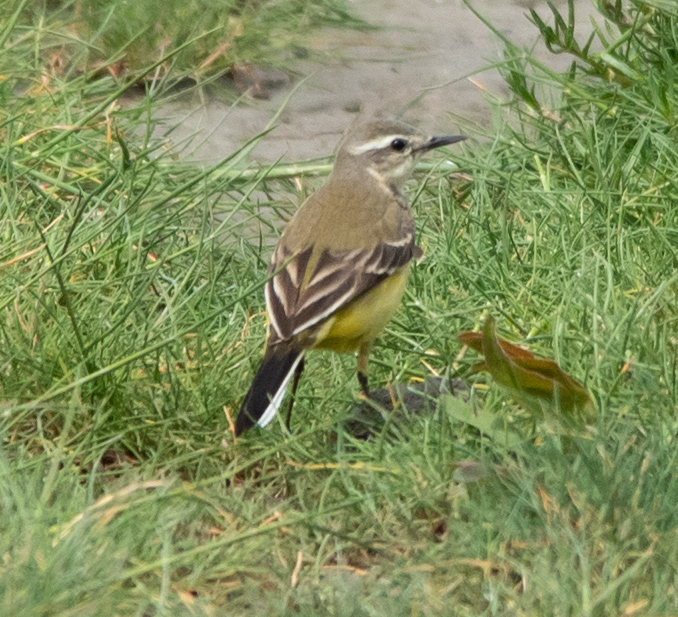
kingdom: Animalia
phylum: Chordata
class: Aves
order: Passeriformes
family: Motacillidae
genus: Motacilla
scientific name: Motacilla flava
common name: Western yellow wagtail
